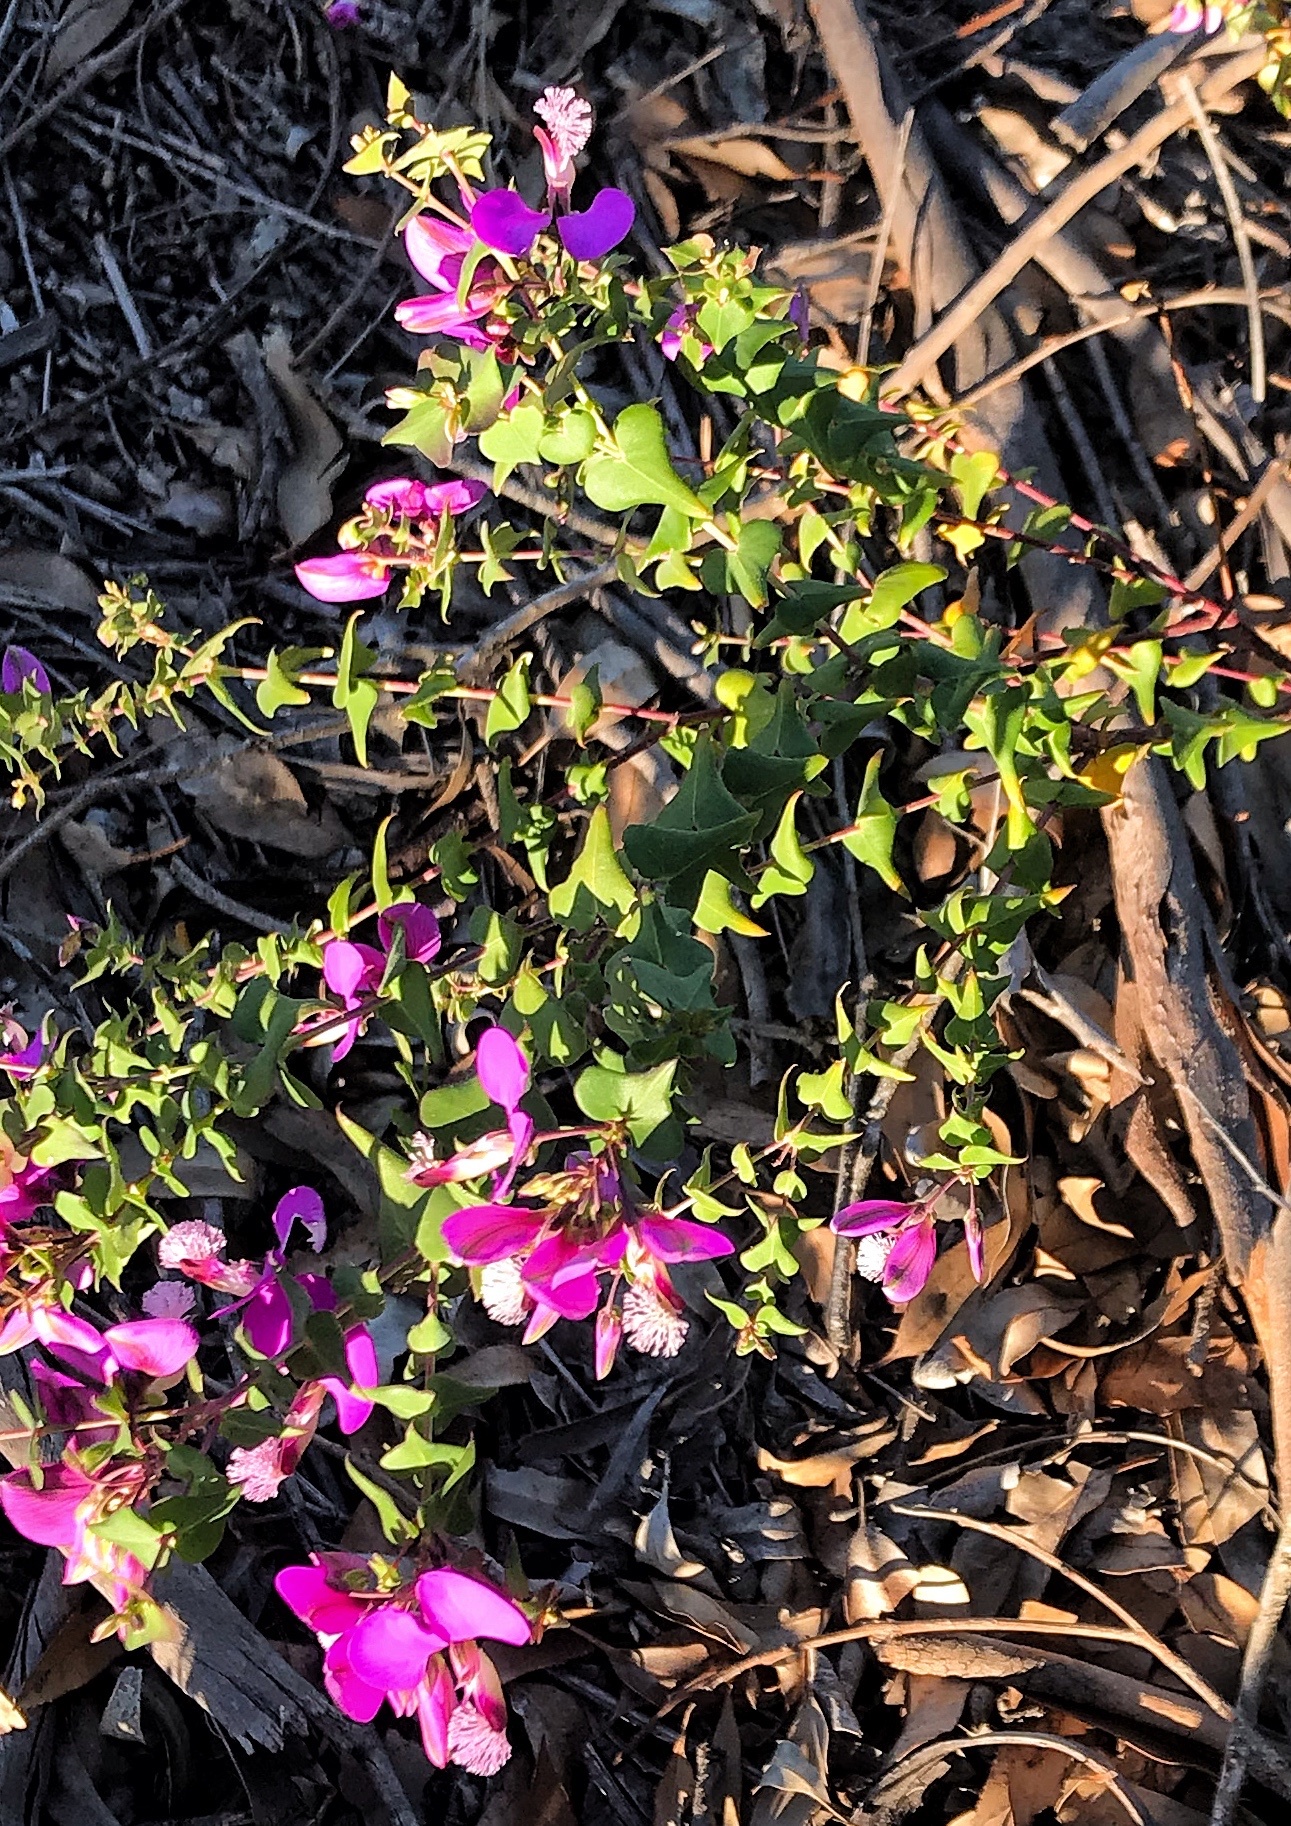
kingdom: Plantae
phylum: Tracheophyta
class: Magnoliopsida
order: Fabales
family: Polygalaceae
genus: Polygala
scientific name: Polygala fruticosa
